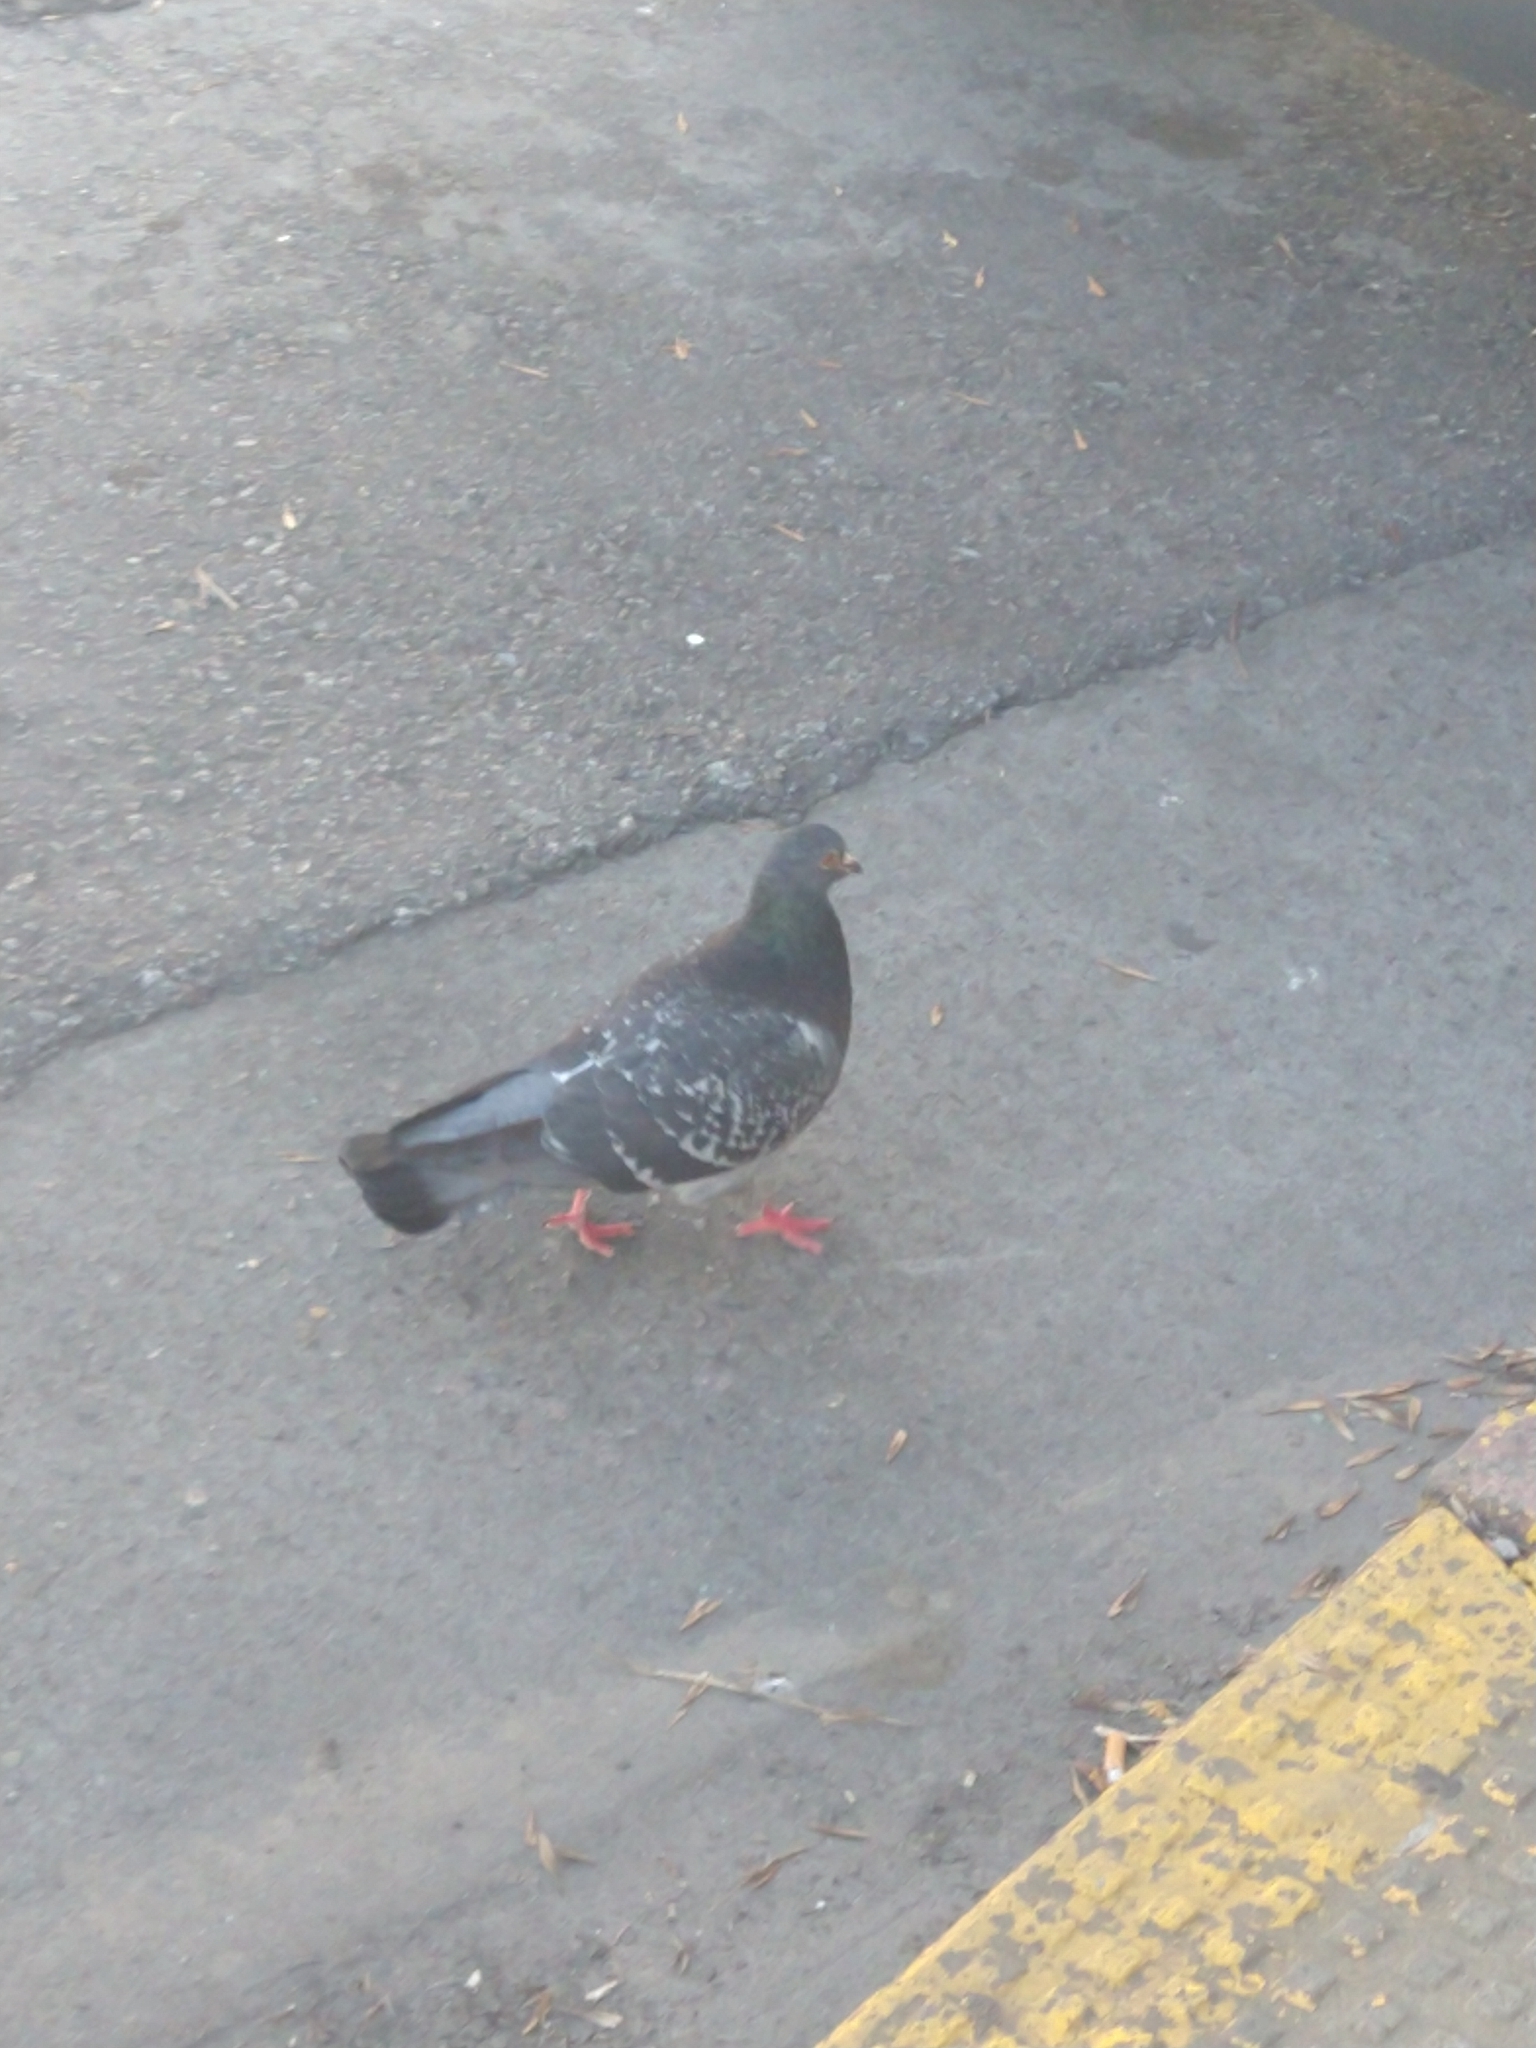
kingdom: Animalia
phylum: Chordata
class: Aves
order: Columbiformes
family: Columbidae
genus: Columba
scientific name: Columba livia
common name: Rock pigeon
